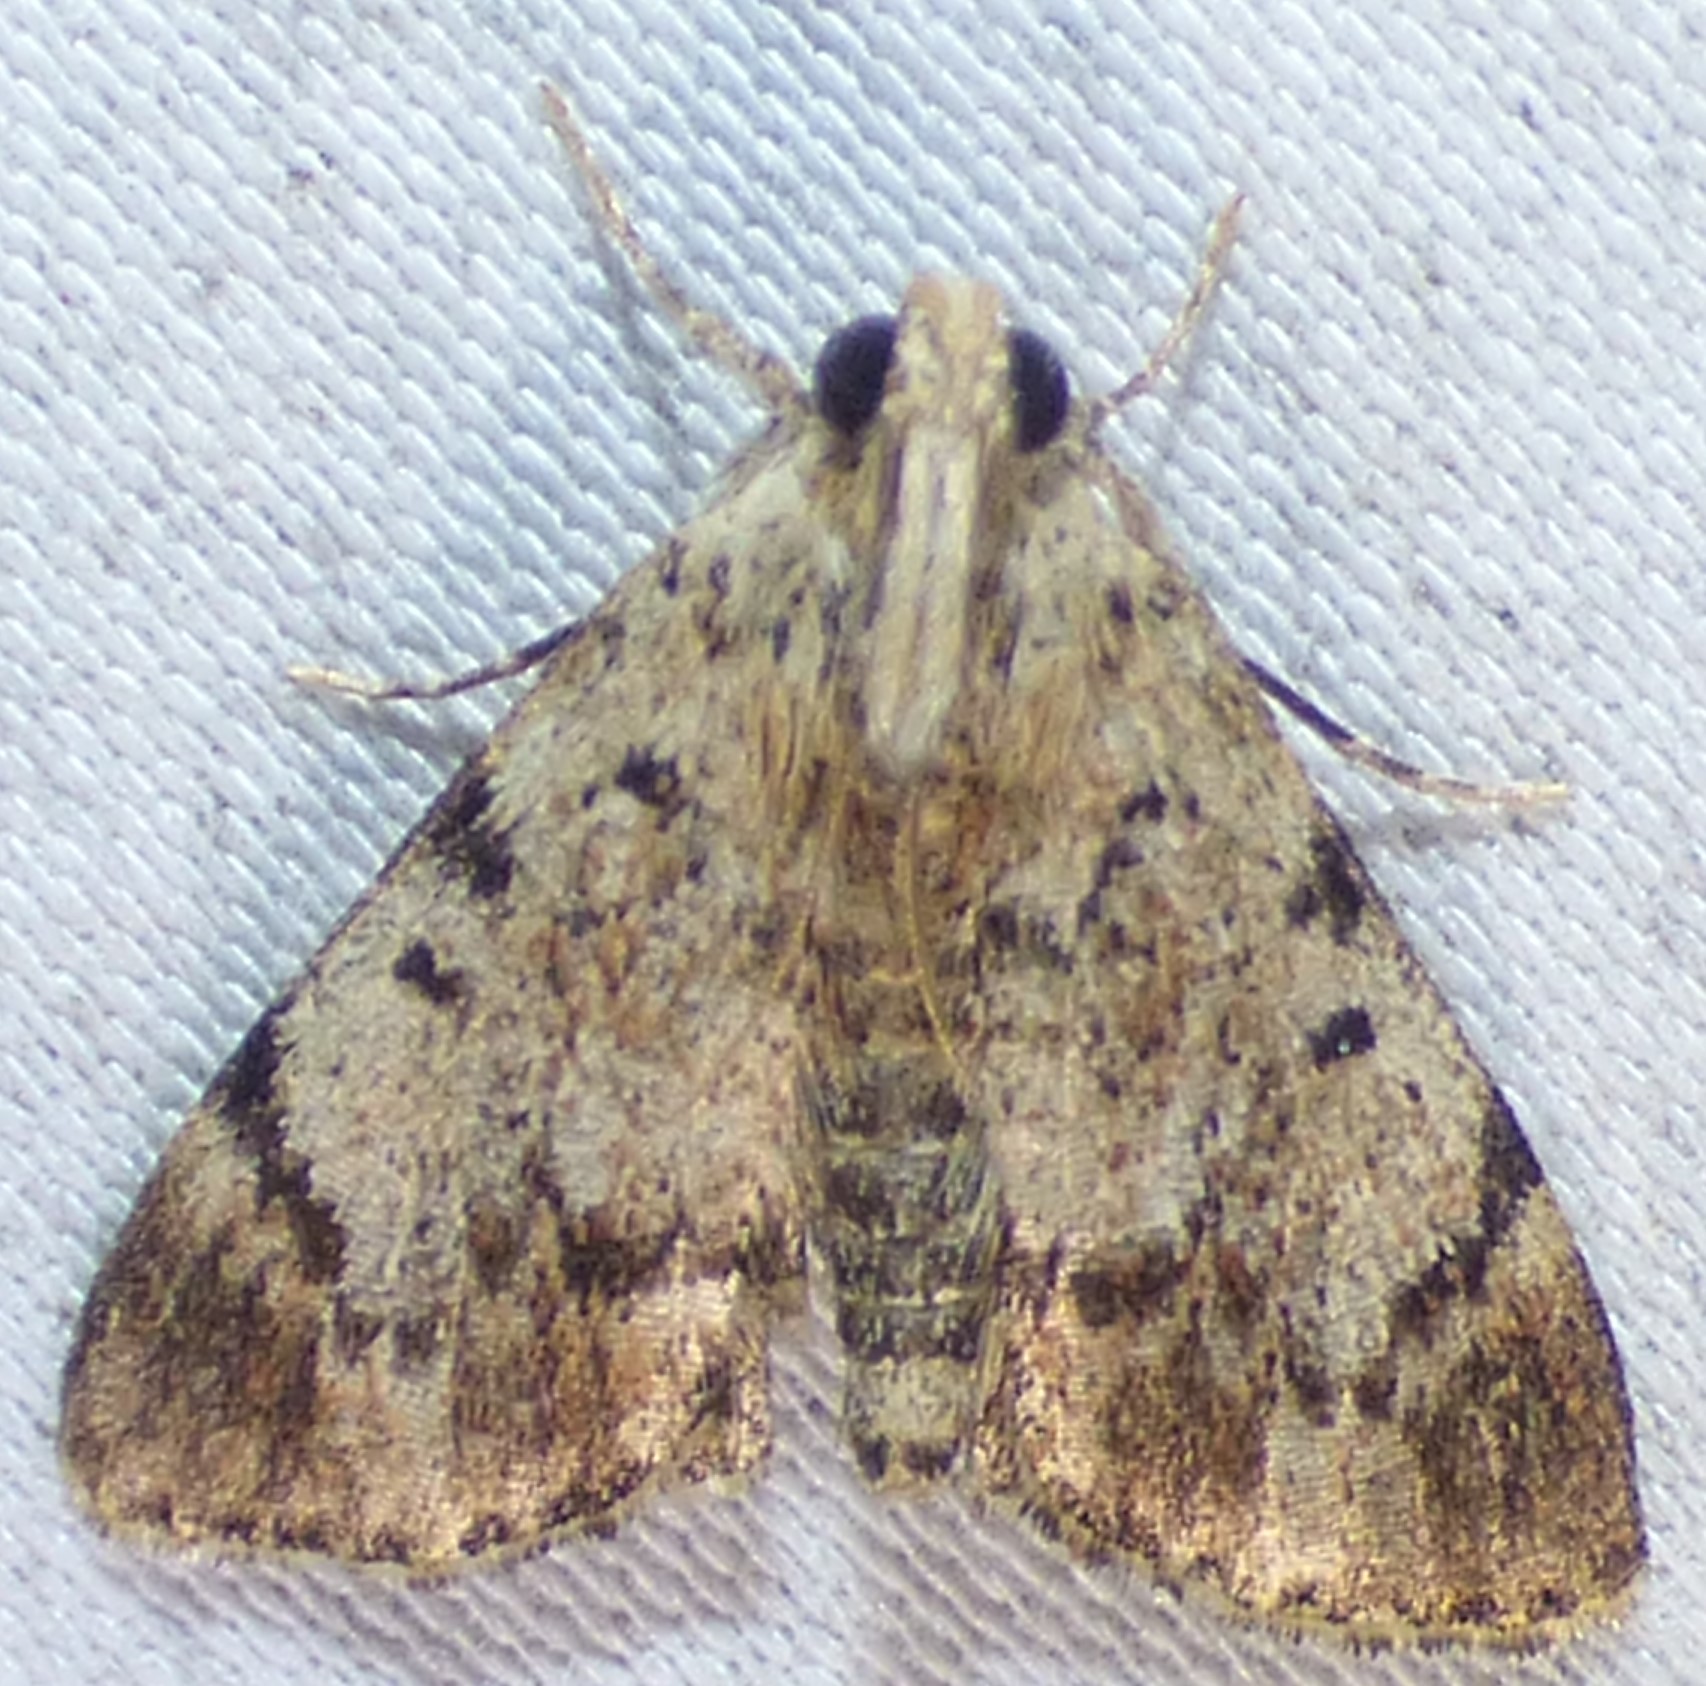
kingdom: Animalia
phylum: Arthropoda
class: Insecta
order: Lepidoptera
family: Pyralidae
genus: Epipaschia
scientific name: Epipaschia superatalis
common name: Dimorphic macalla moth
